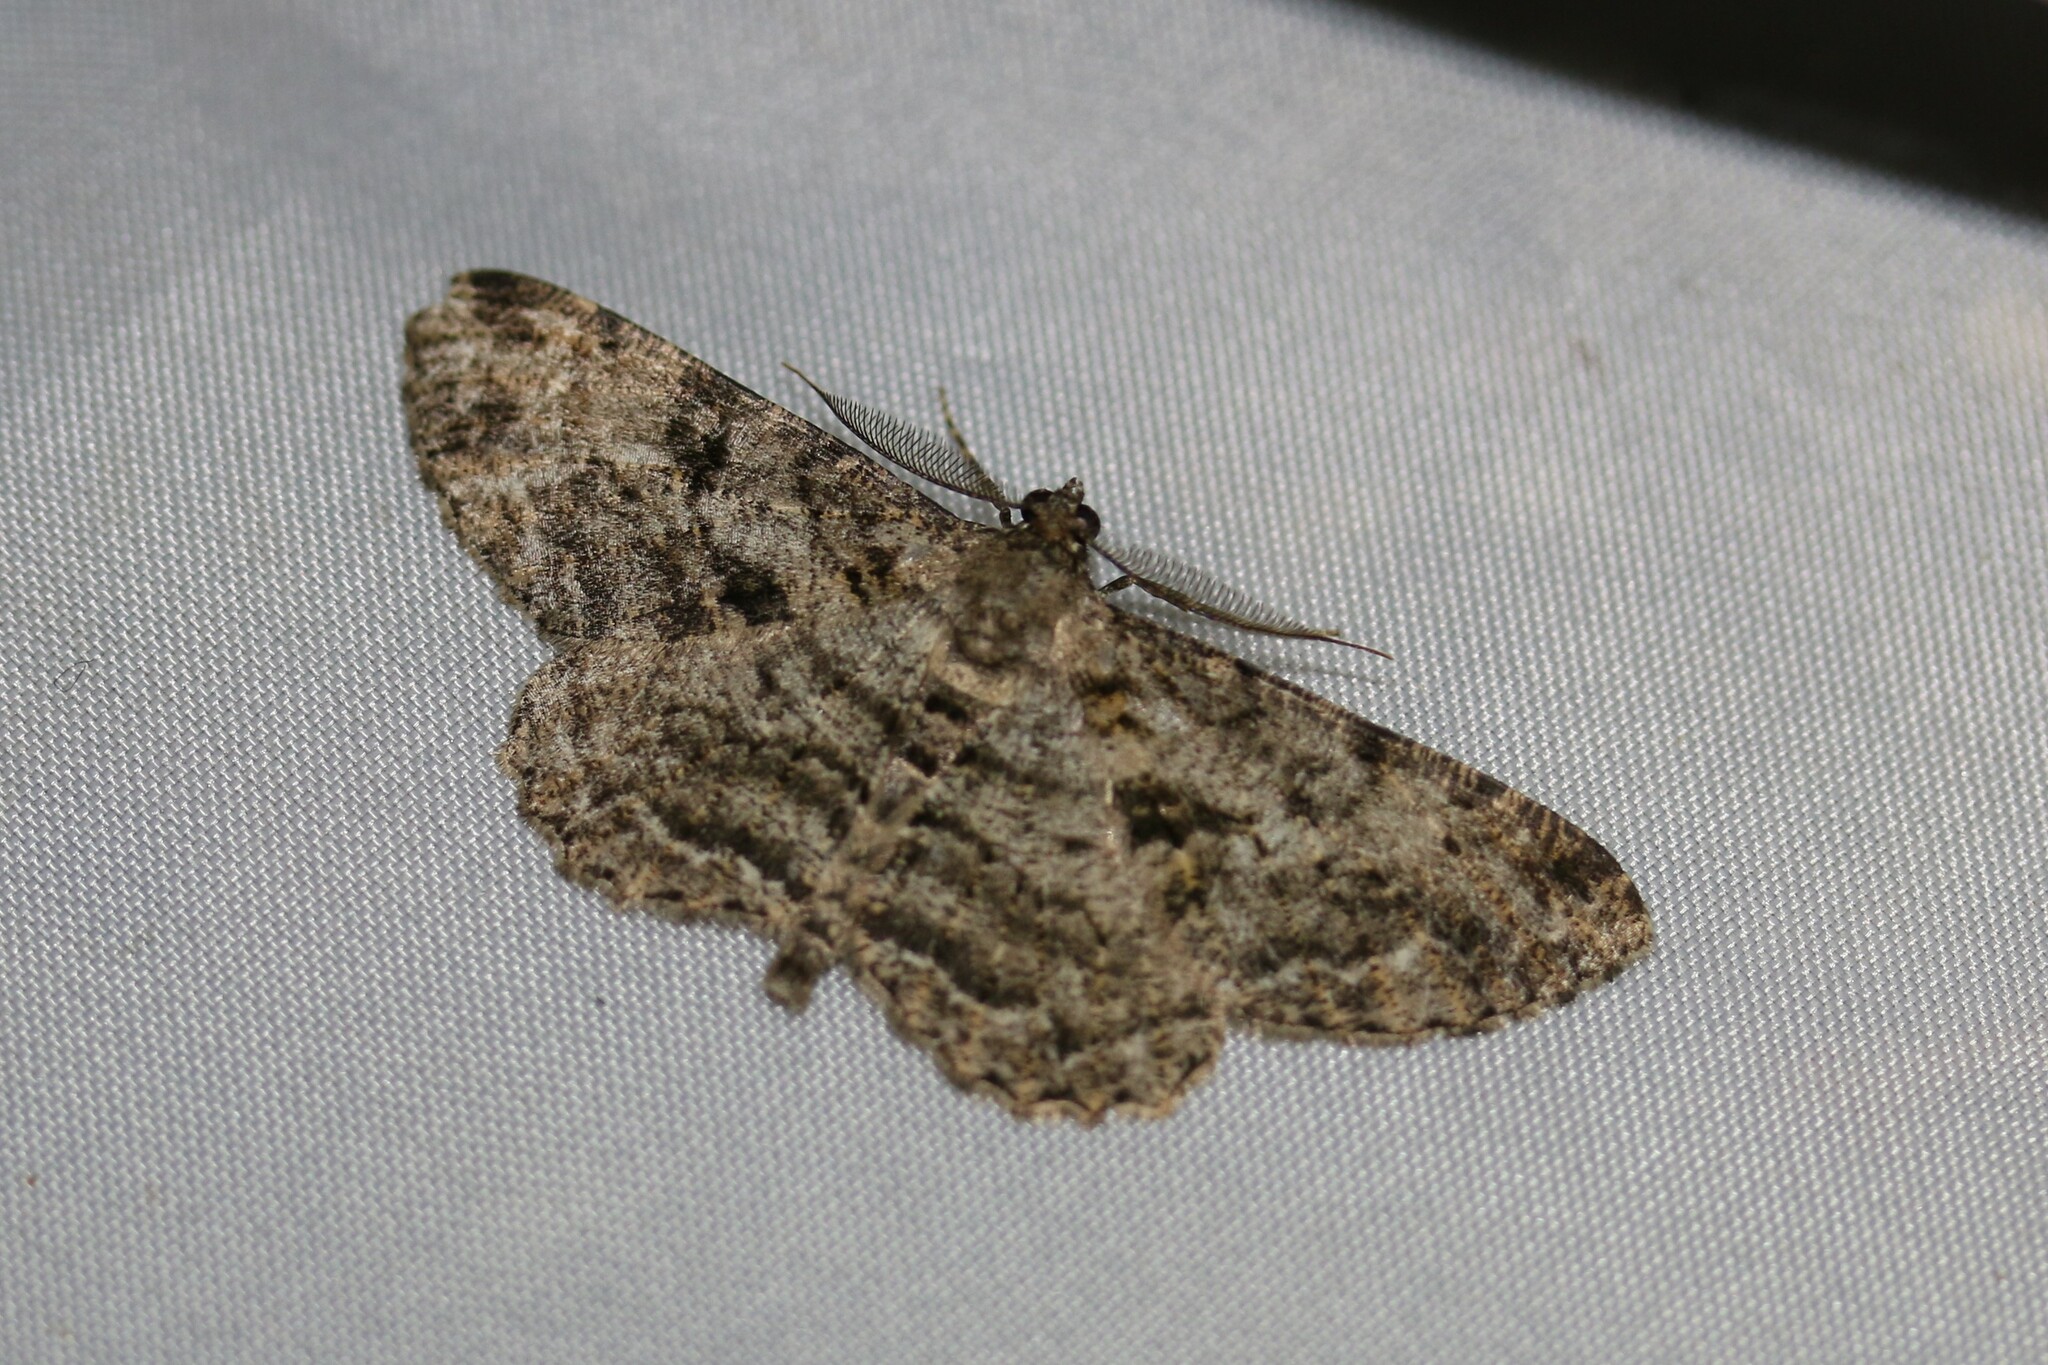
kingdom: Animalia
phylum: Arthropoda
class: Insecta
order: Lepidoptera
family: Geometridae
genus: Peribatodes
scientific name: Peribatodes rhomboidaria
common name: Willow beauty
